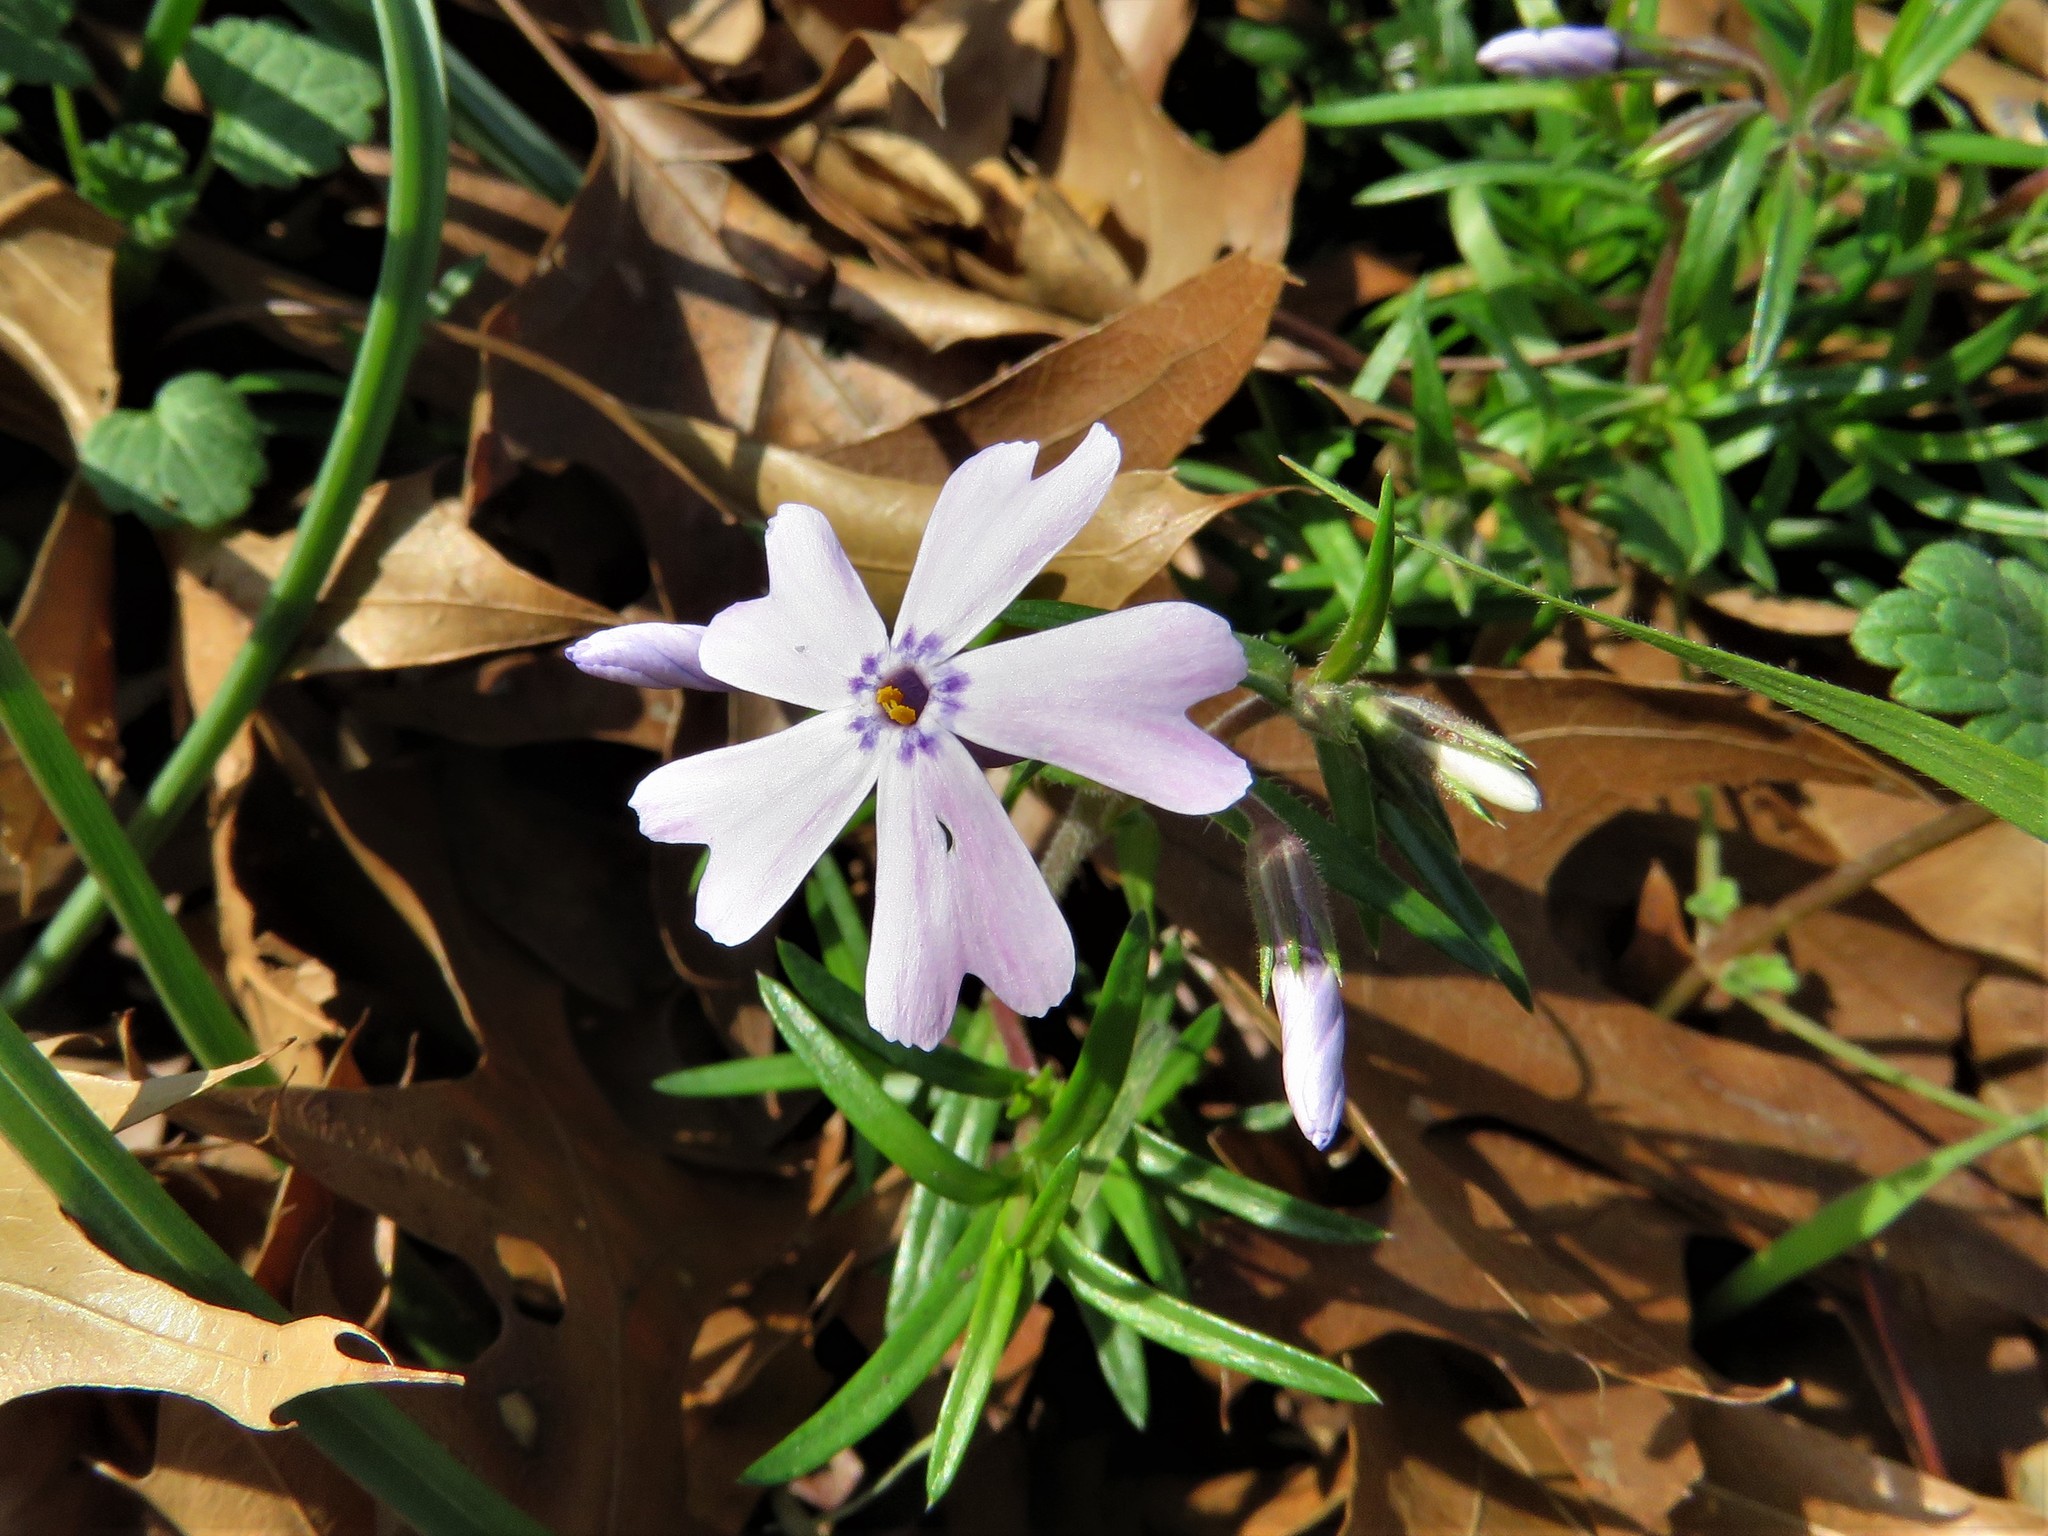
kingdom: Plantae
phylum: Tracheophyta
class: Magnoliopsida
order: Ericales
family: Polemoniaceae
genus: Phlox
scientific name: Phlox subulata
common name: Moss phlox
